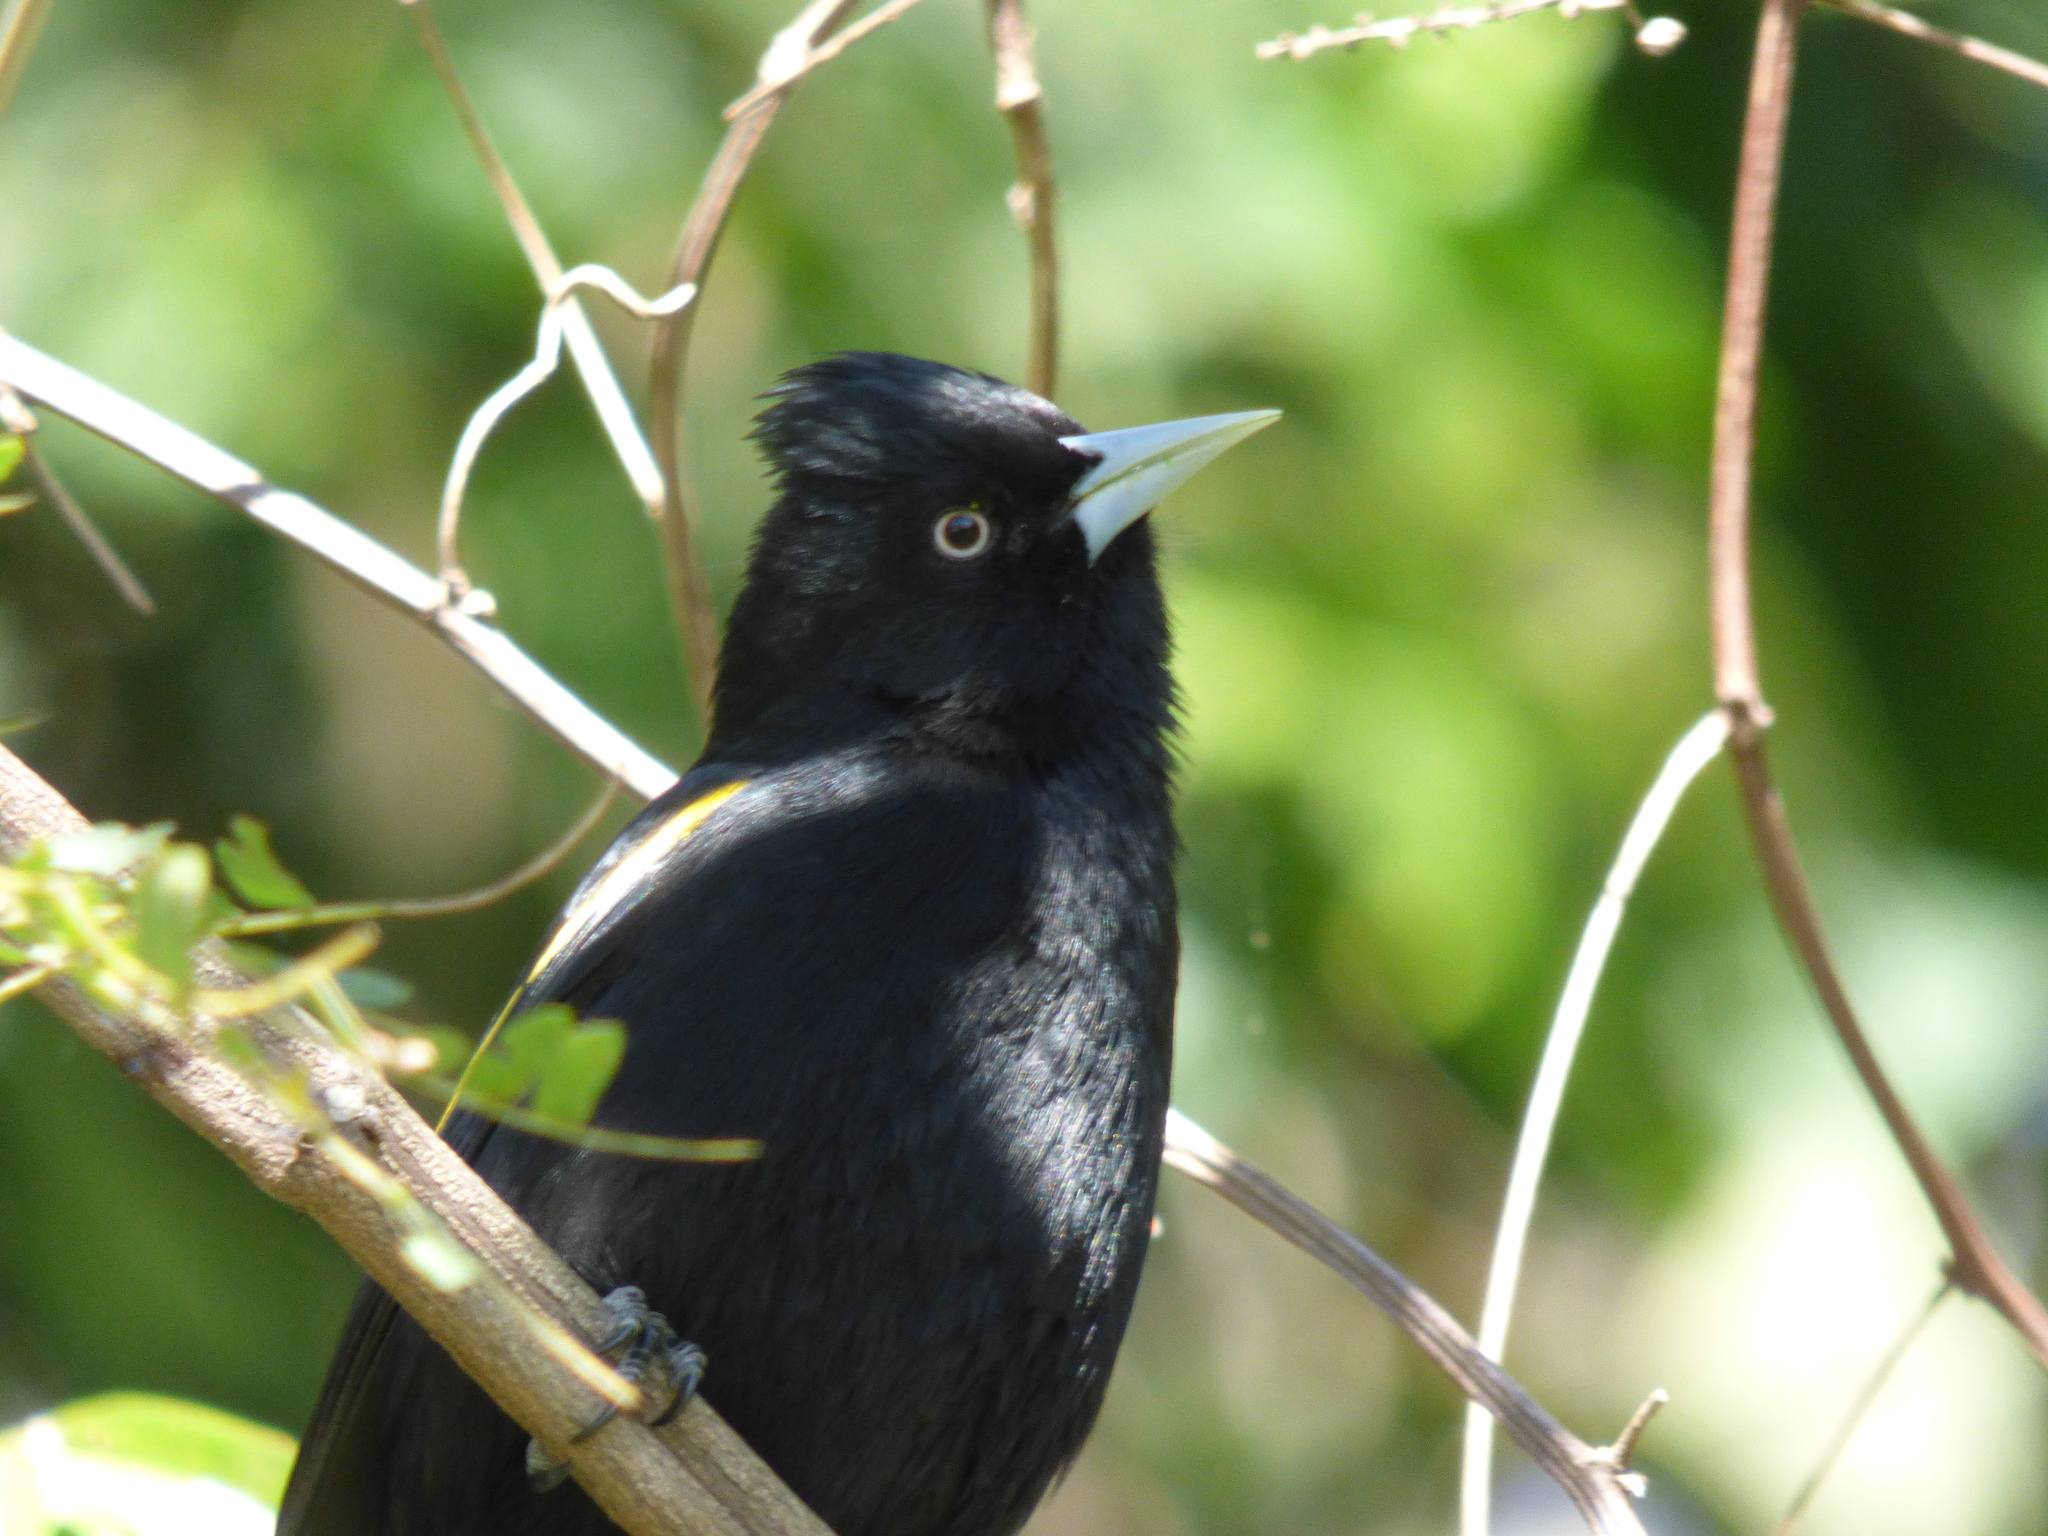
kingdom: Animalia
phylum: Chordata
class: Aves
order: Passeriformes
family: Icteridae
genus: Cacicus
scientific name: Cacicus chrysopterus
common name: Golden-winged cacique
